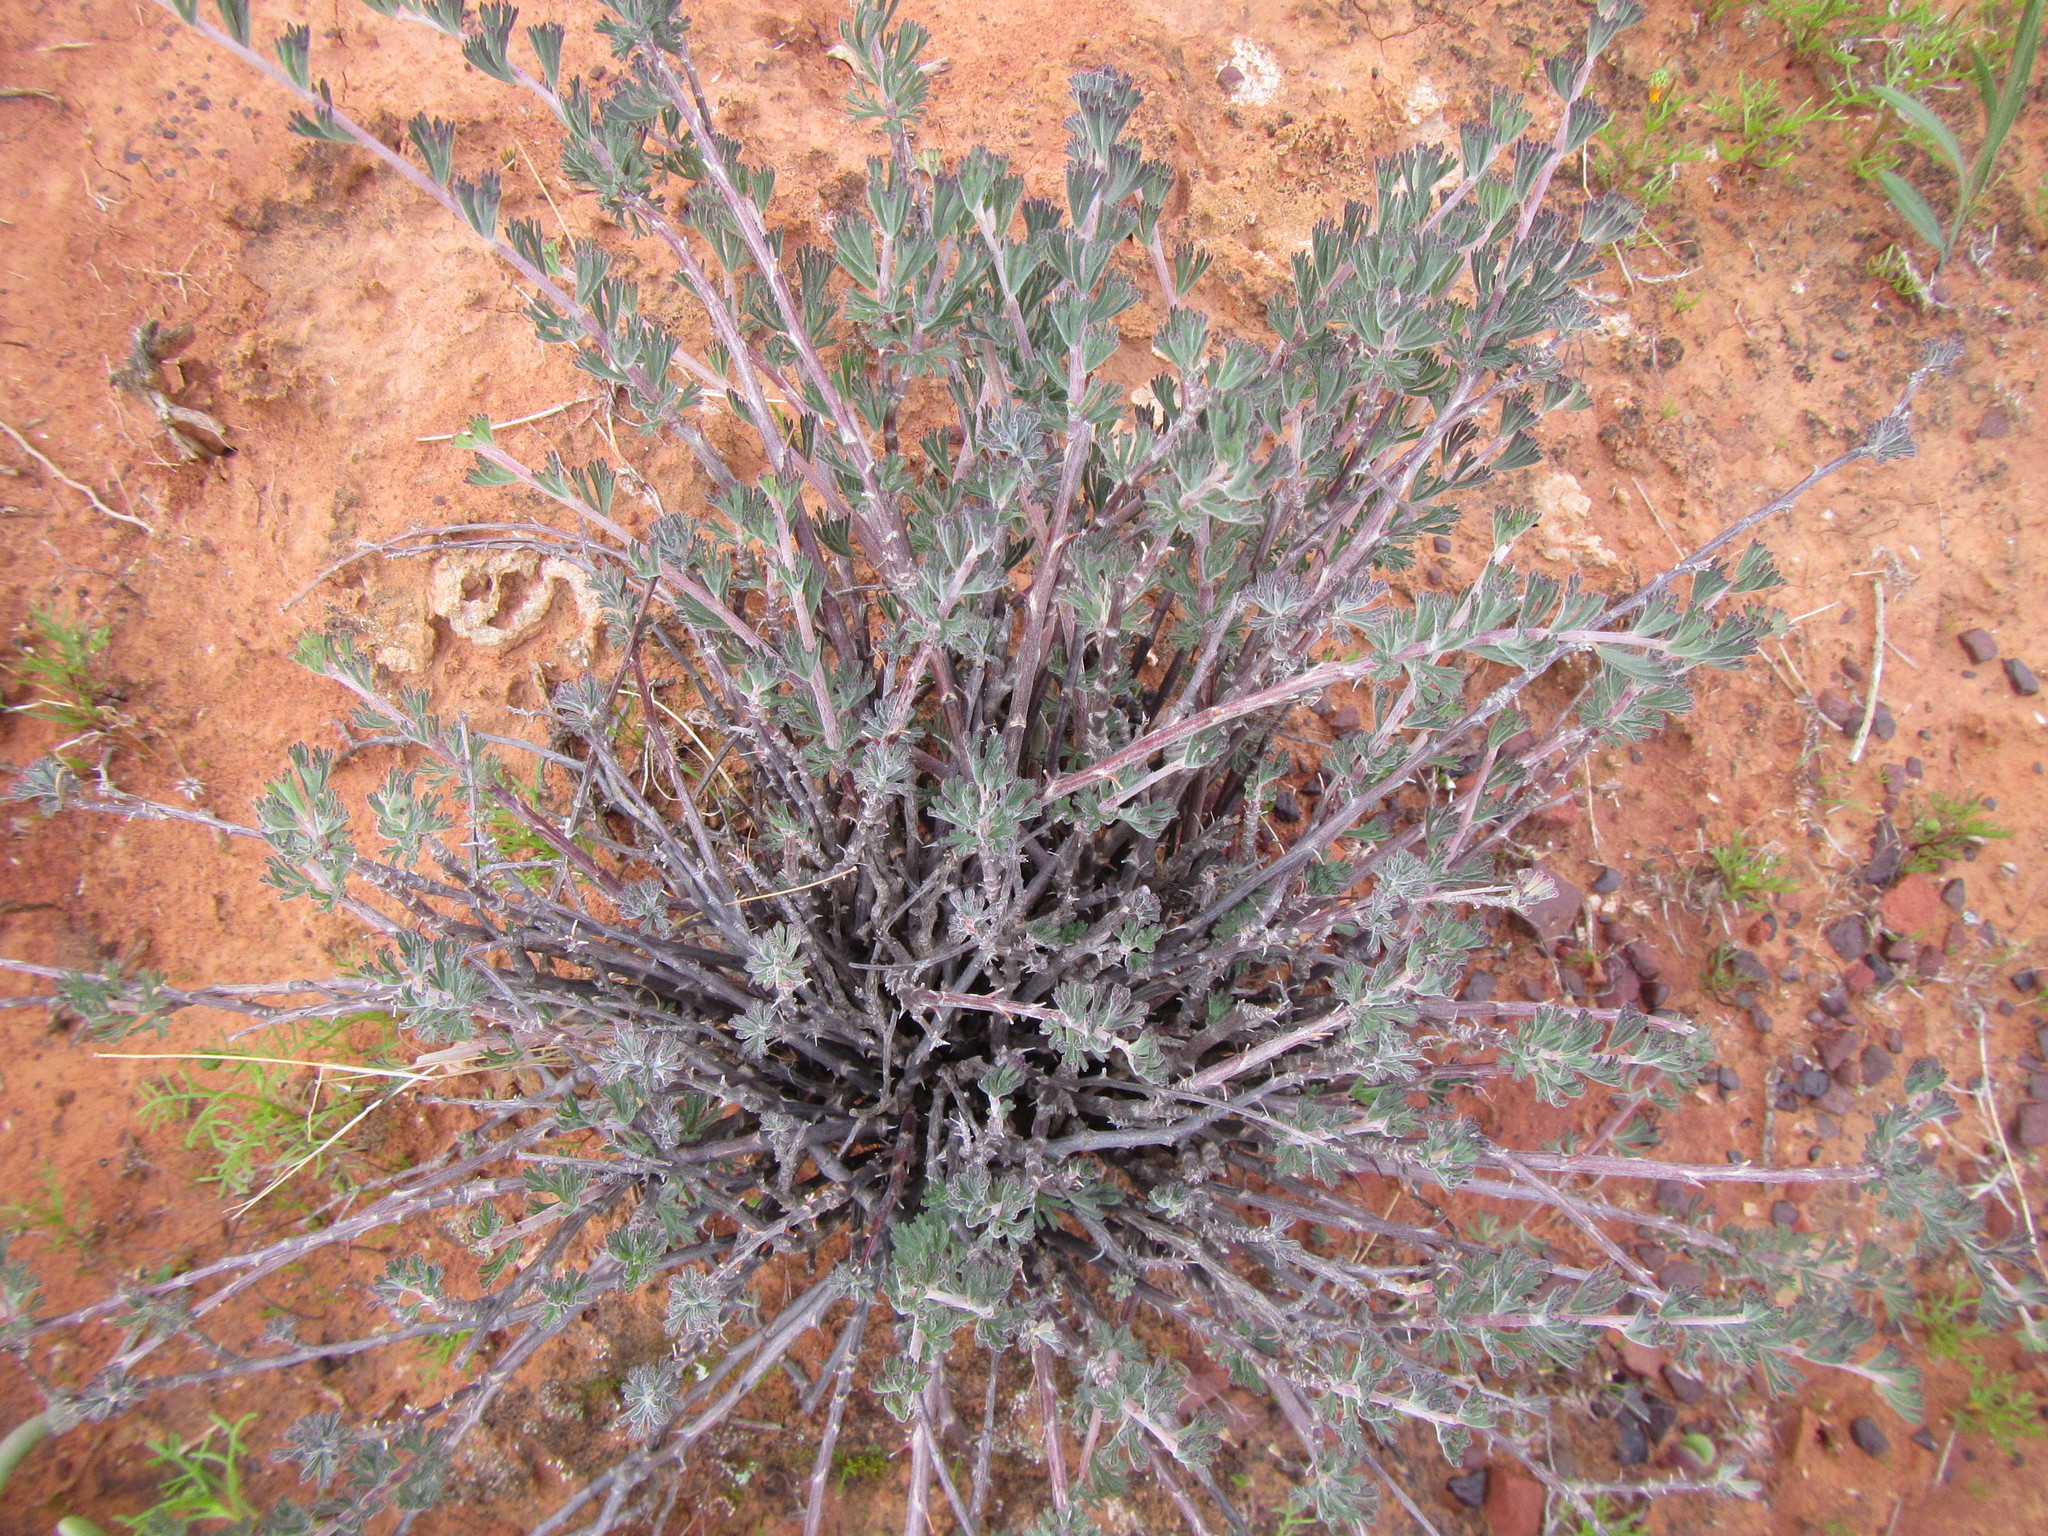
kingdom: Plantae
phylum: Tracheophyta
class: Magnoliopsida
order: Geraniales
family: Geraniaceae
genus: Pelargonium
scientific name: Pelargonium karooicum
